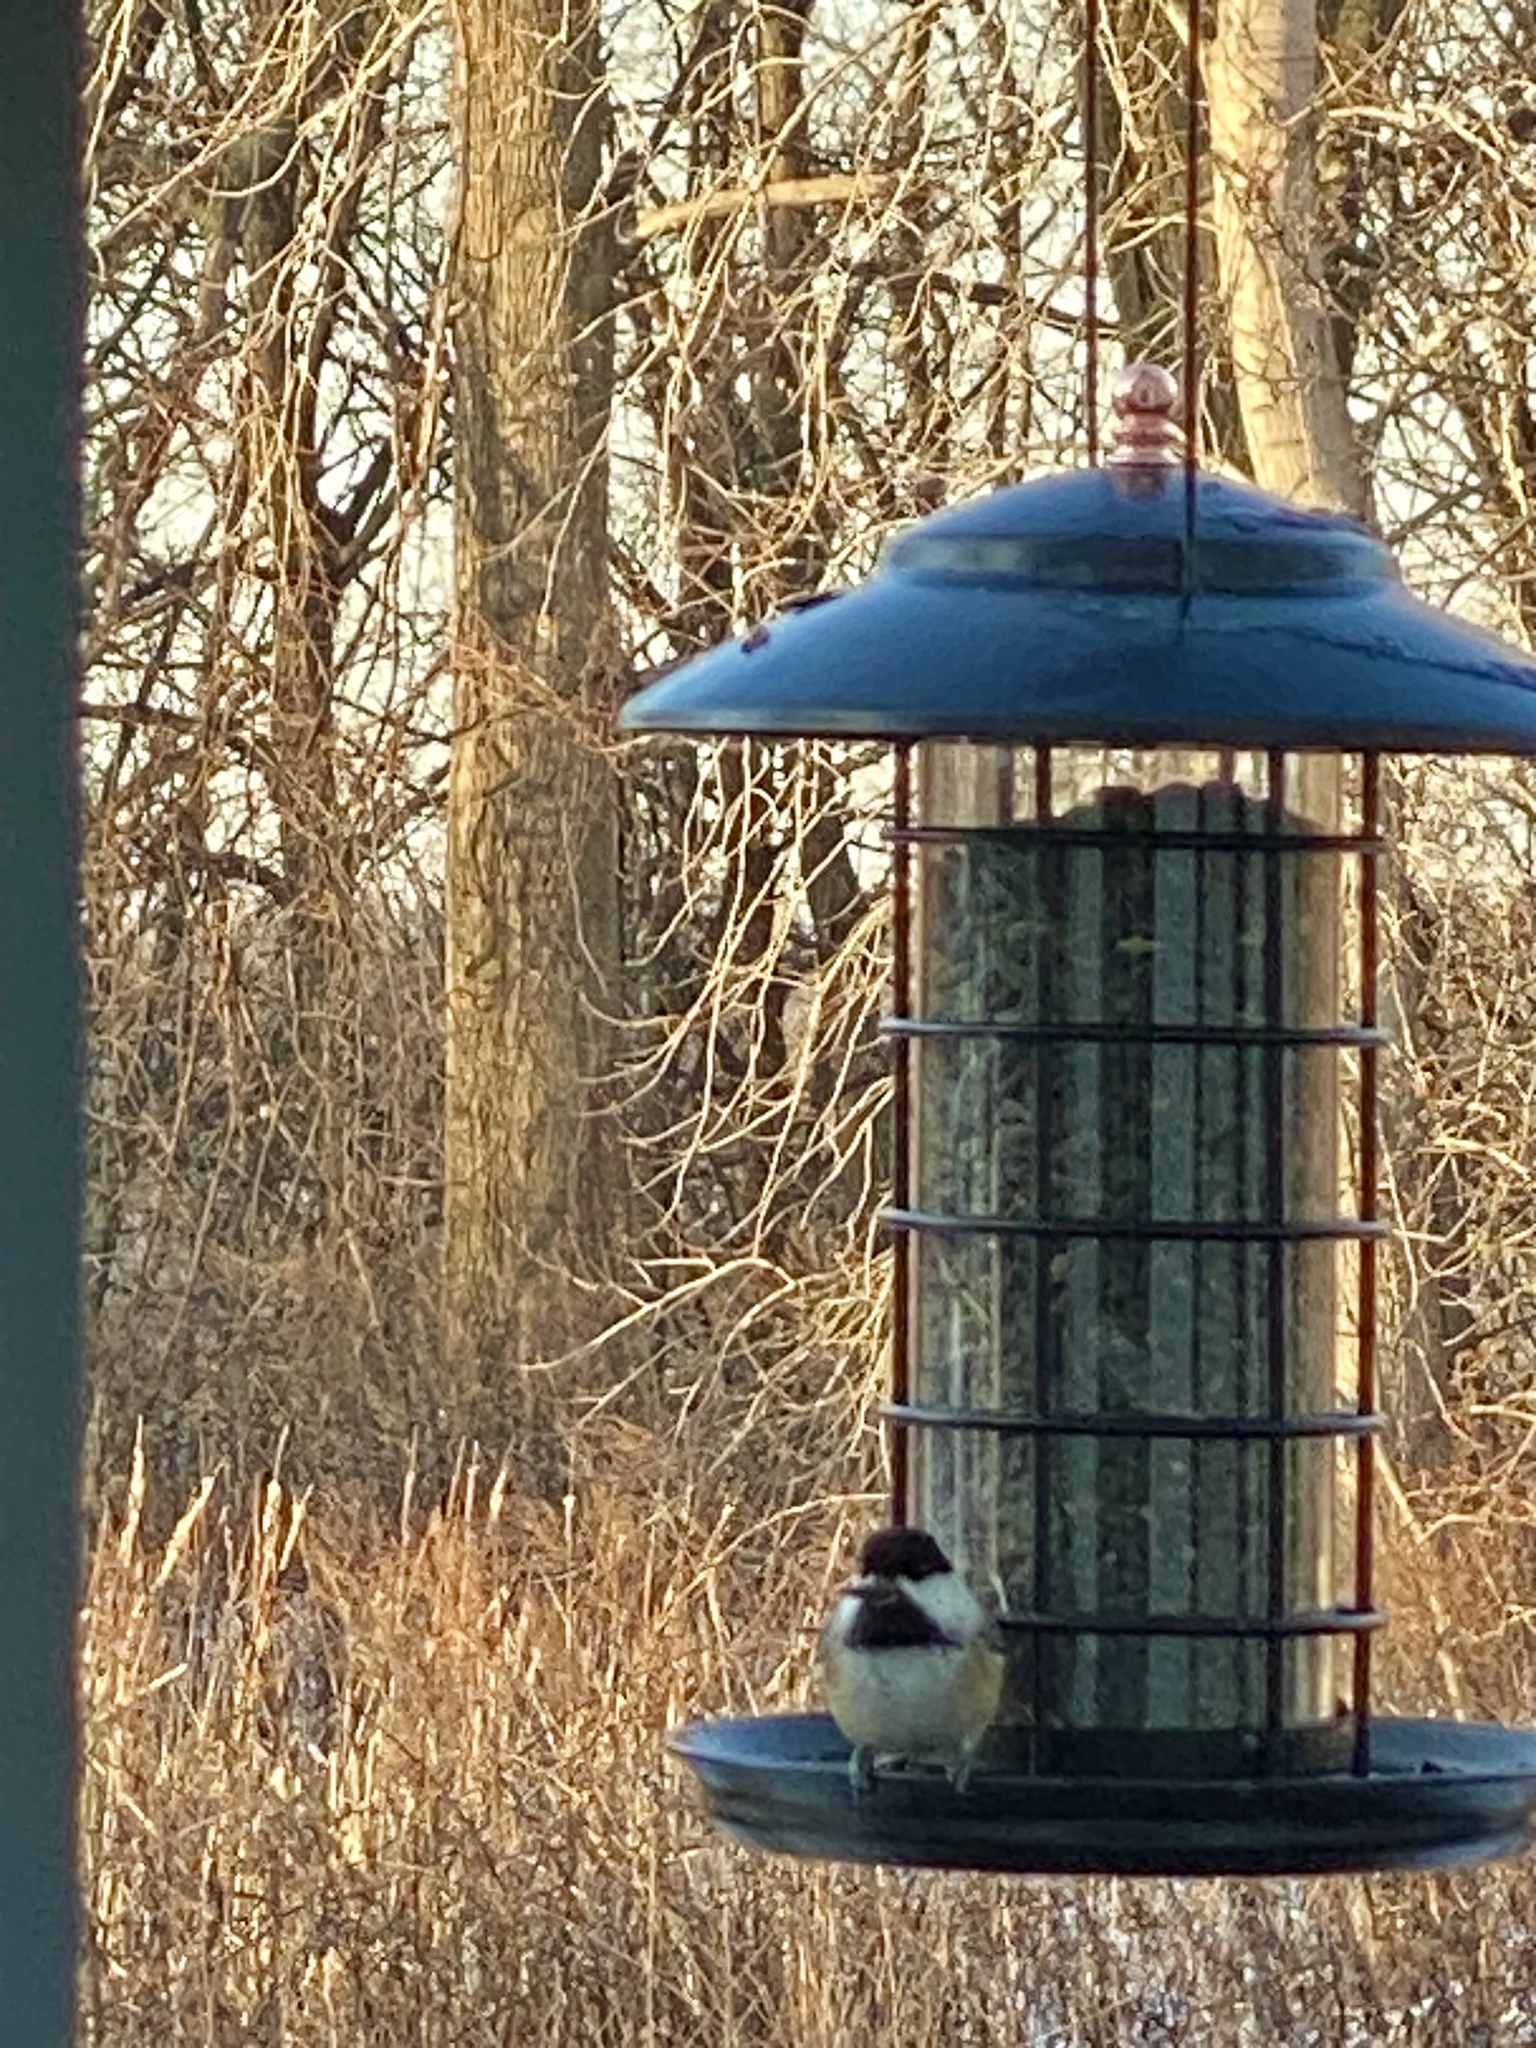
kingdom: Animalia
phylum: Chordata
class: Aves
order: Passeriformes
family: Paridae
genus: Poecile
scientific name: Poecile atricapillus
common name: Black-capped chickadee
